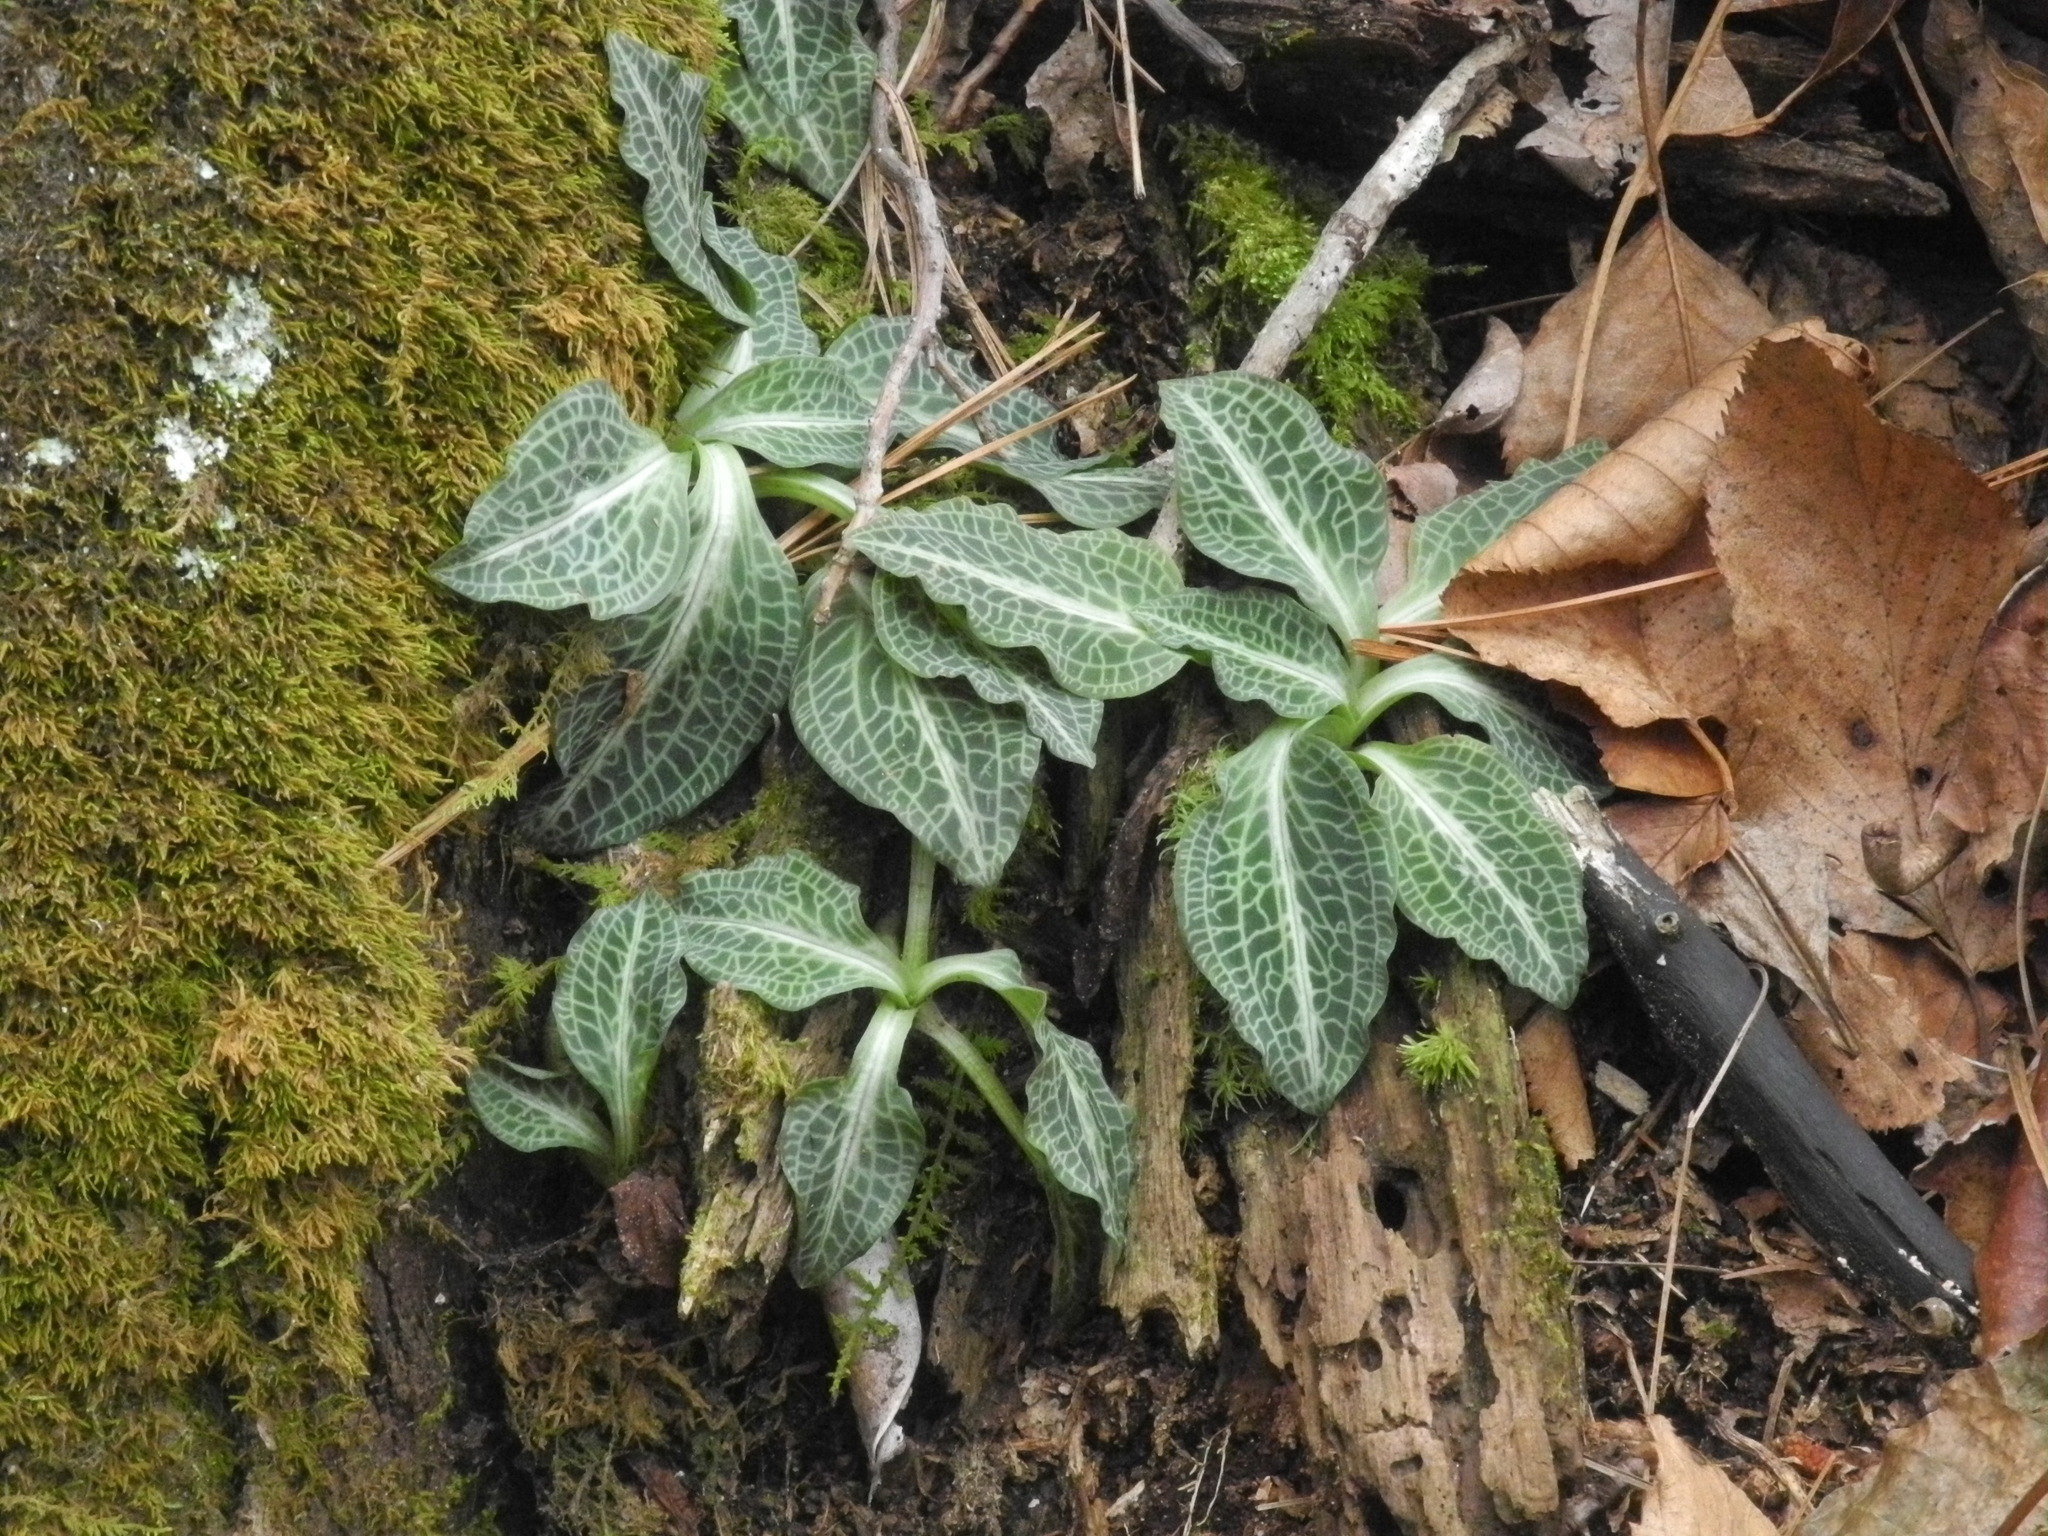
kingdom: Plantae
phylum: Tracheophyta
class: Liliopsida
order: Asparagales
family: Orchidaceae
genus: Goodyera
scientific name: Goodyera pubescens
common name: Downy rattlesnake-plantain
